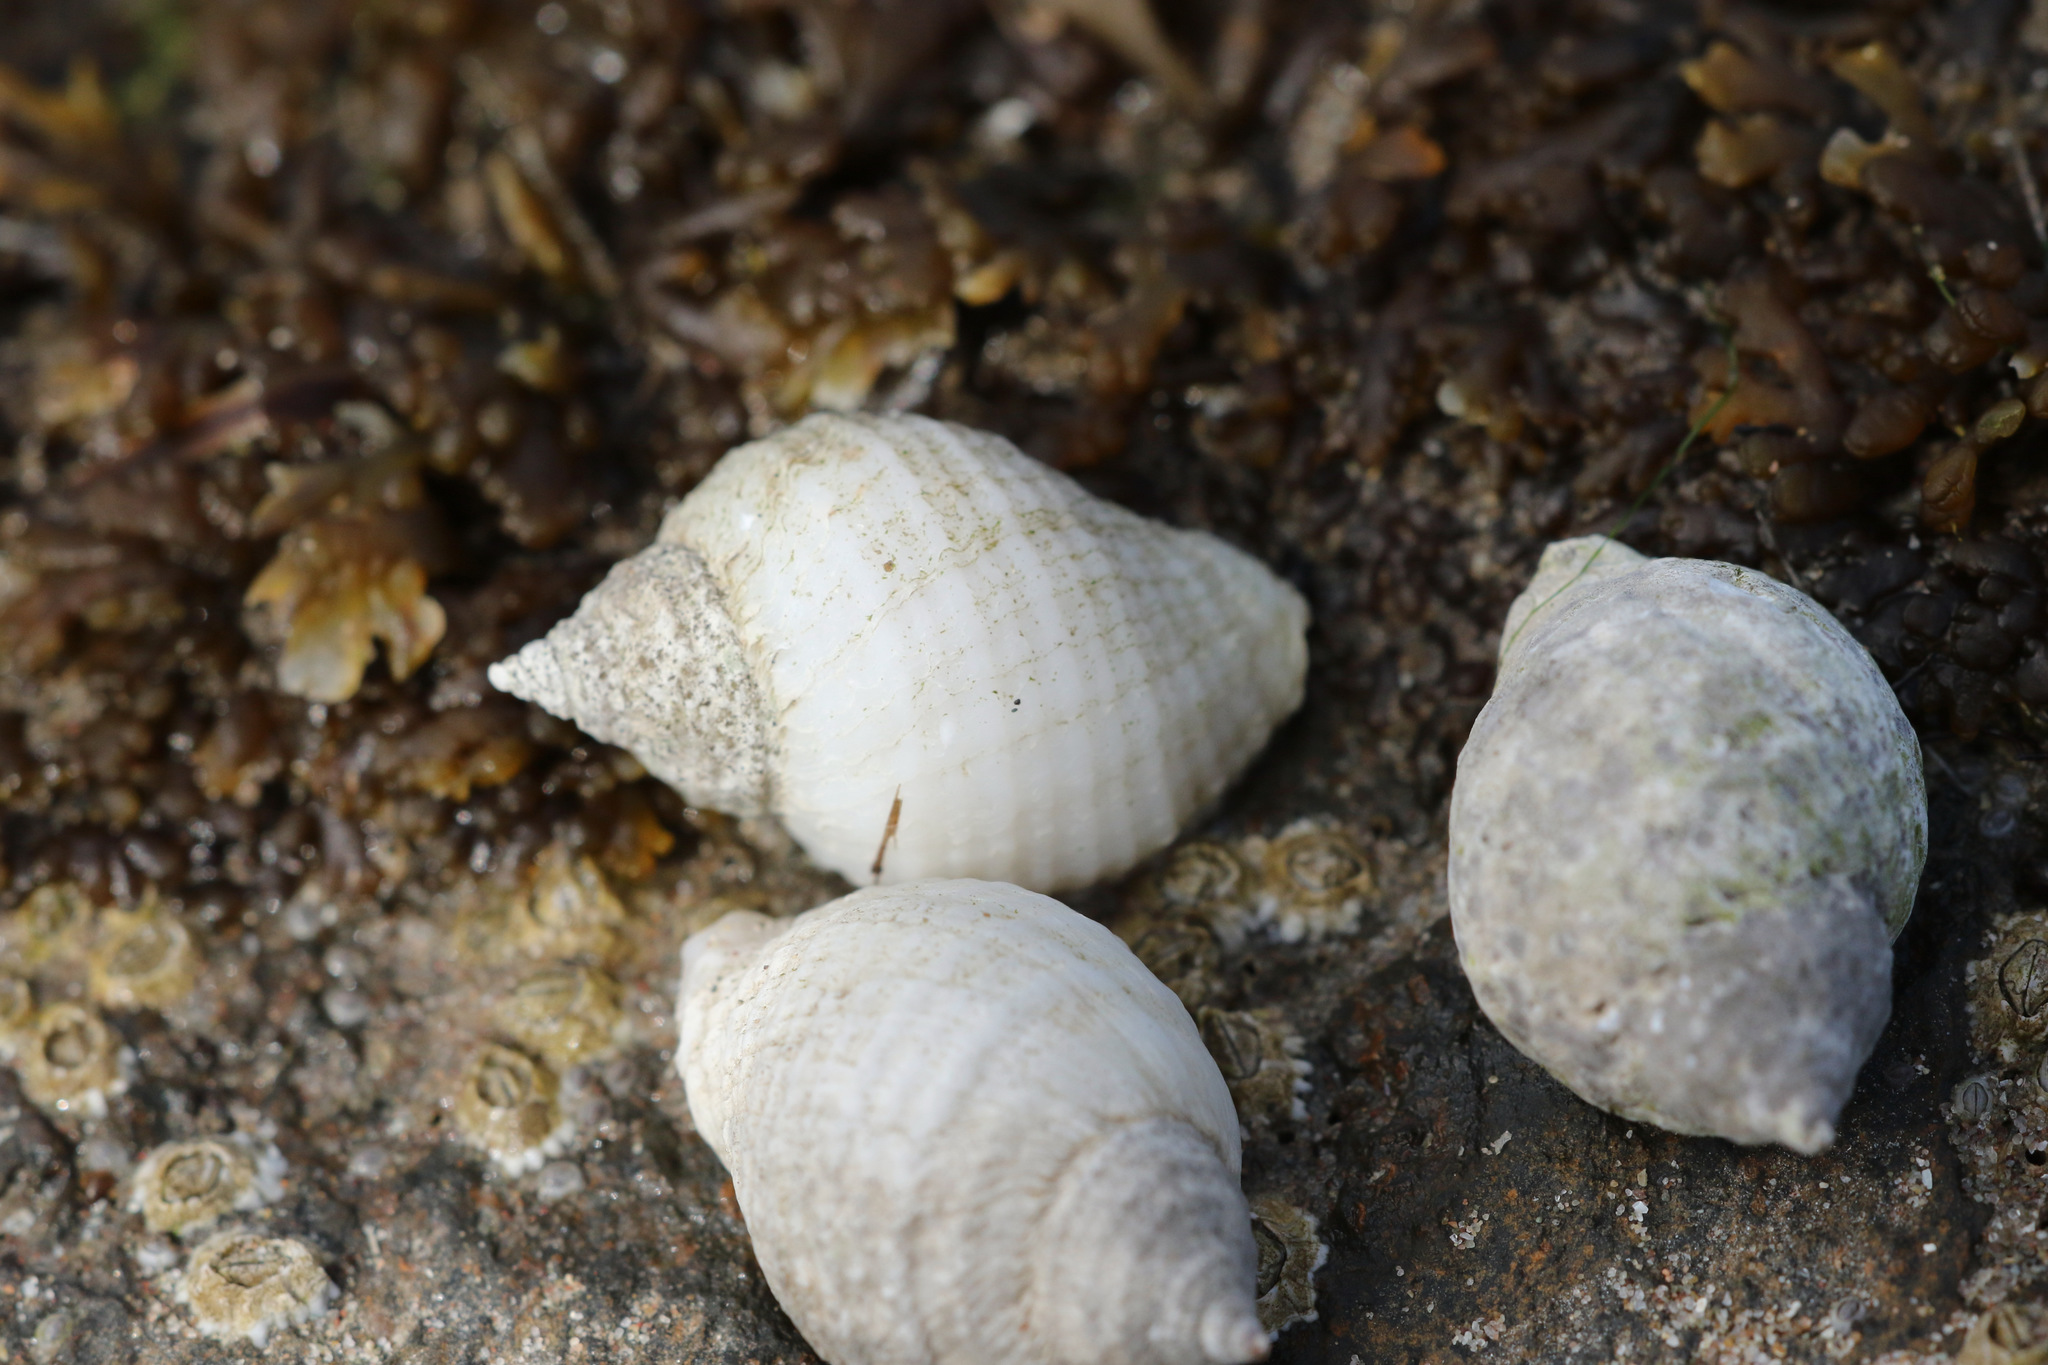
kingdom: Animalia
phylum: Mollusca
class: Gastropoda
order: Neogastropoda
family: Muricidae
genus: Nucella
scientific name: Nucella lapillus
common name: Dog whelk
